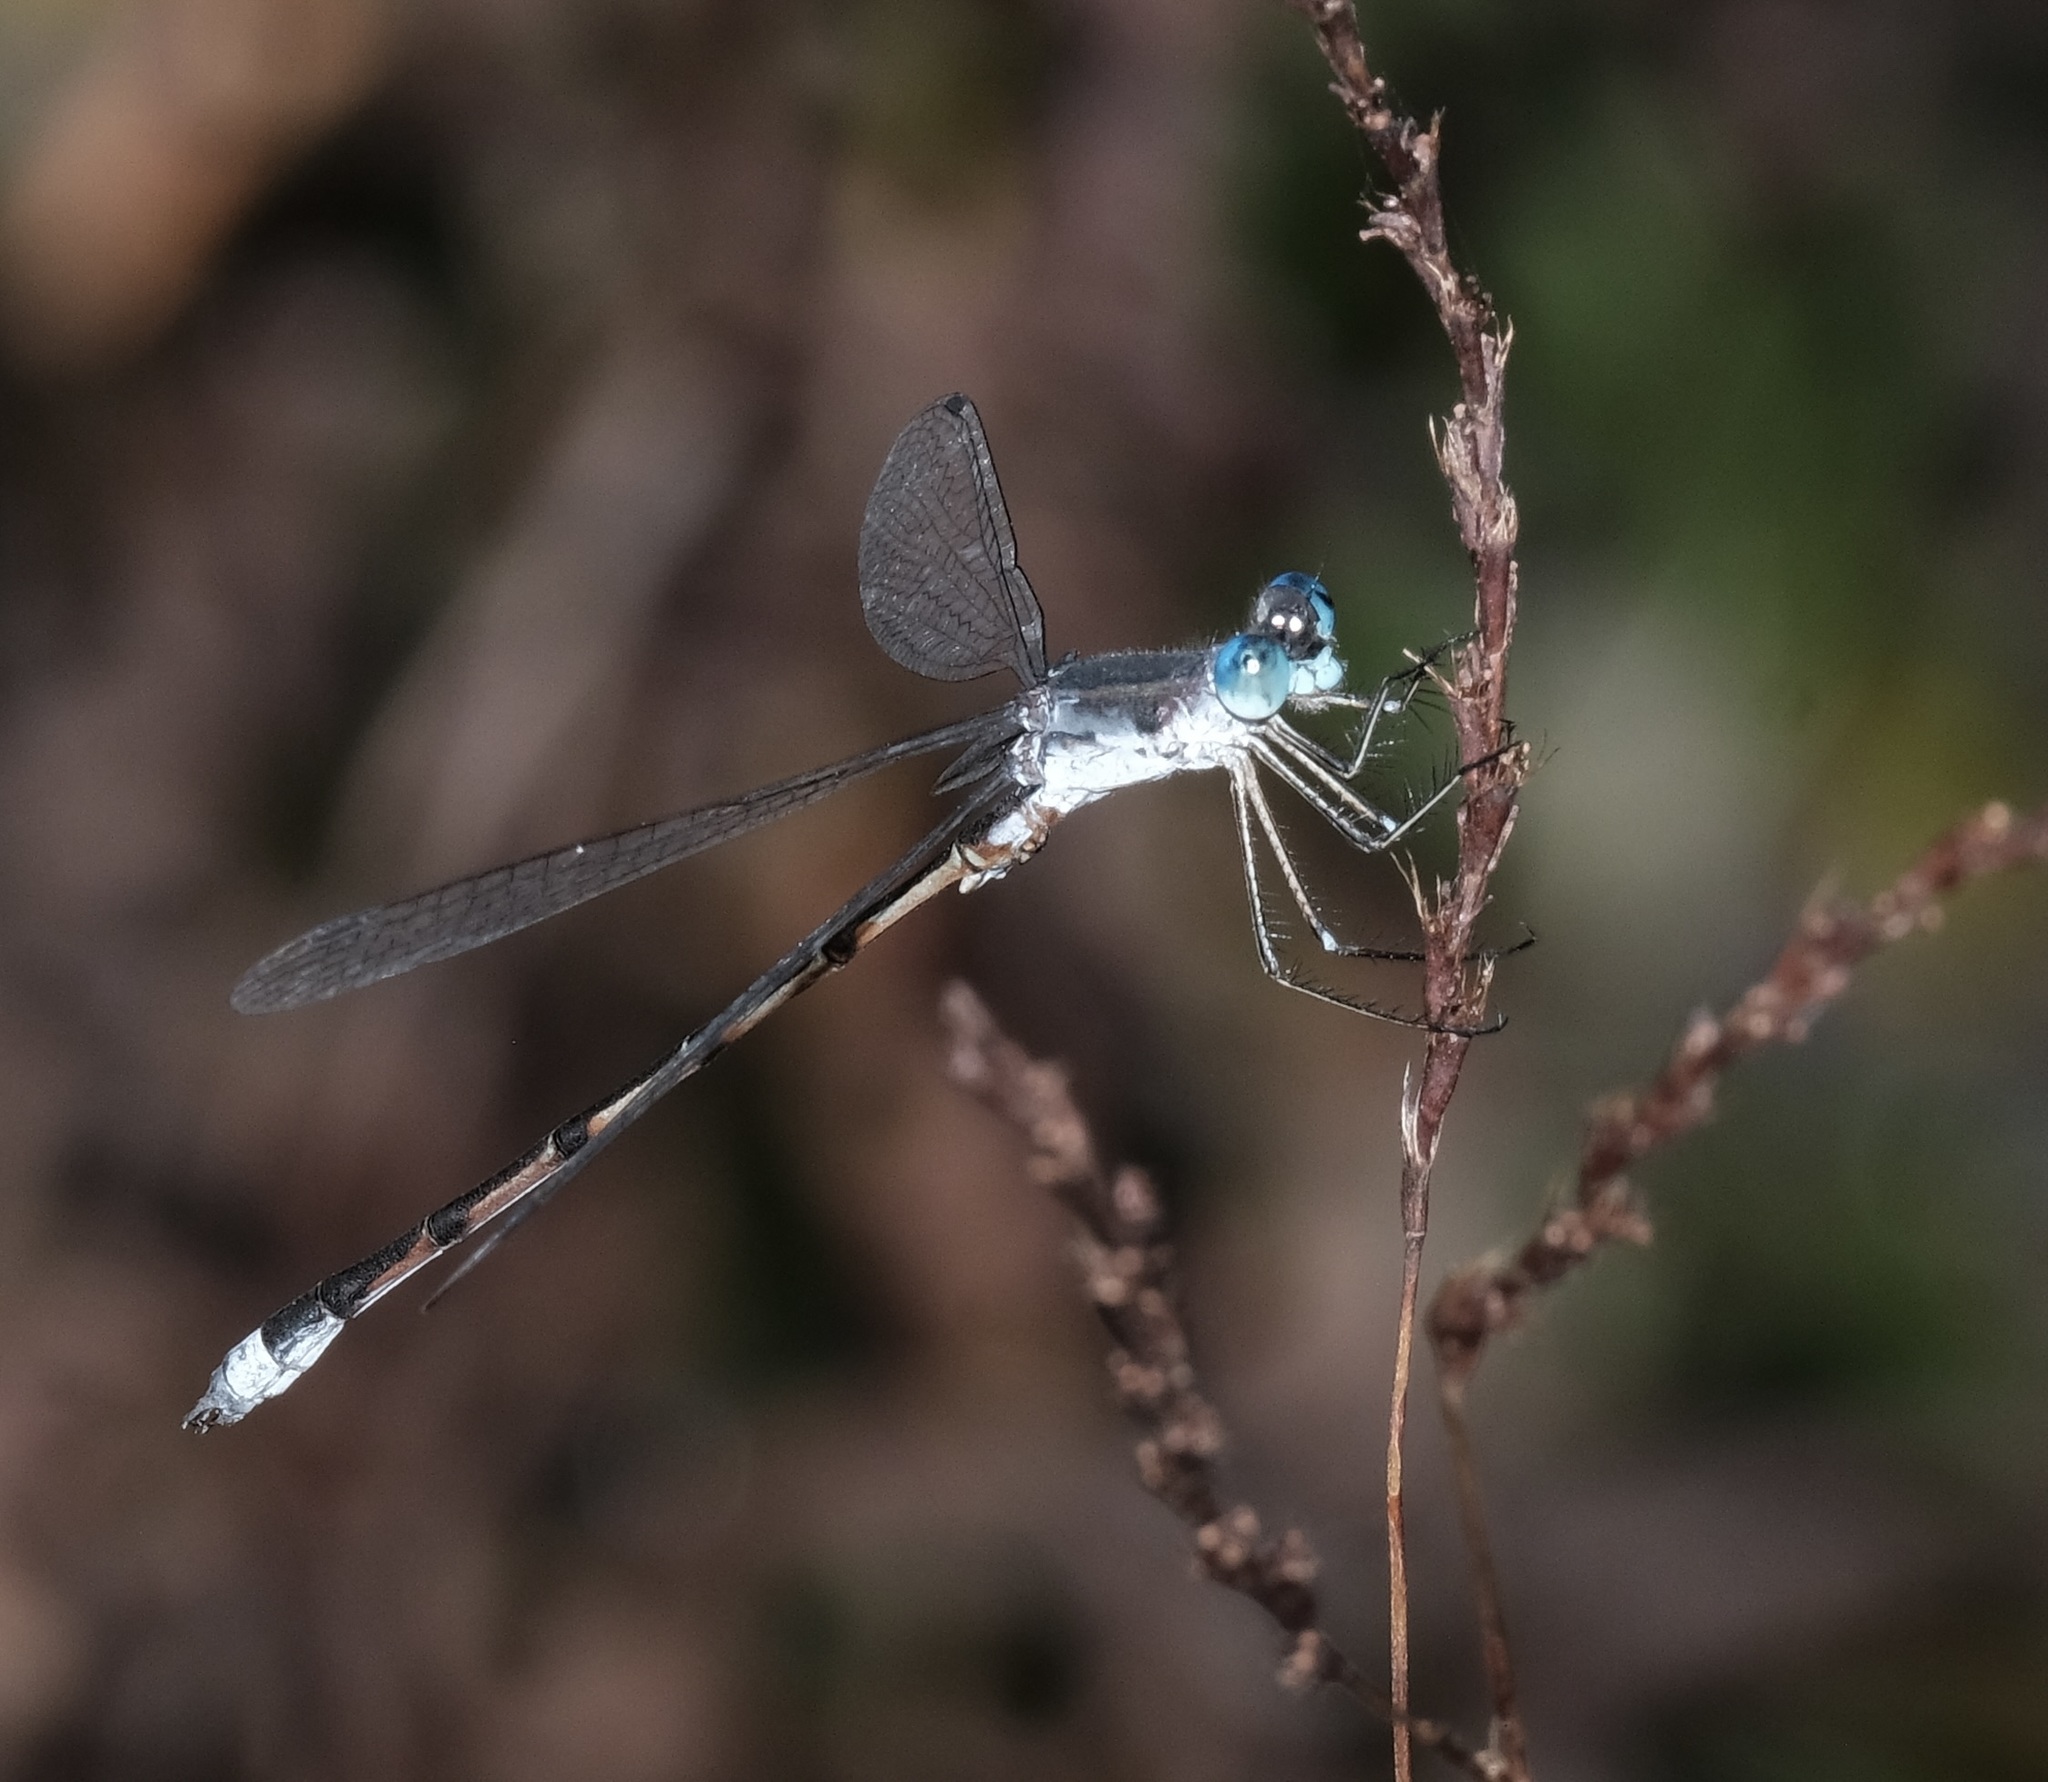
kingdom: Animalia
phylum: Arthropoda
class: Insecta
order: Odonata
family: Lestidae
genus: Lestes
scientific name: Lestes australis
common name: Southern spreadwing
